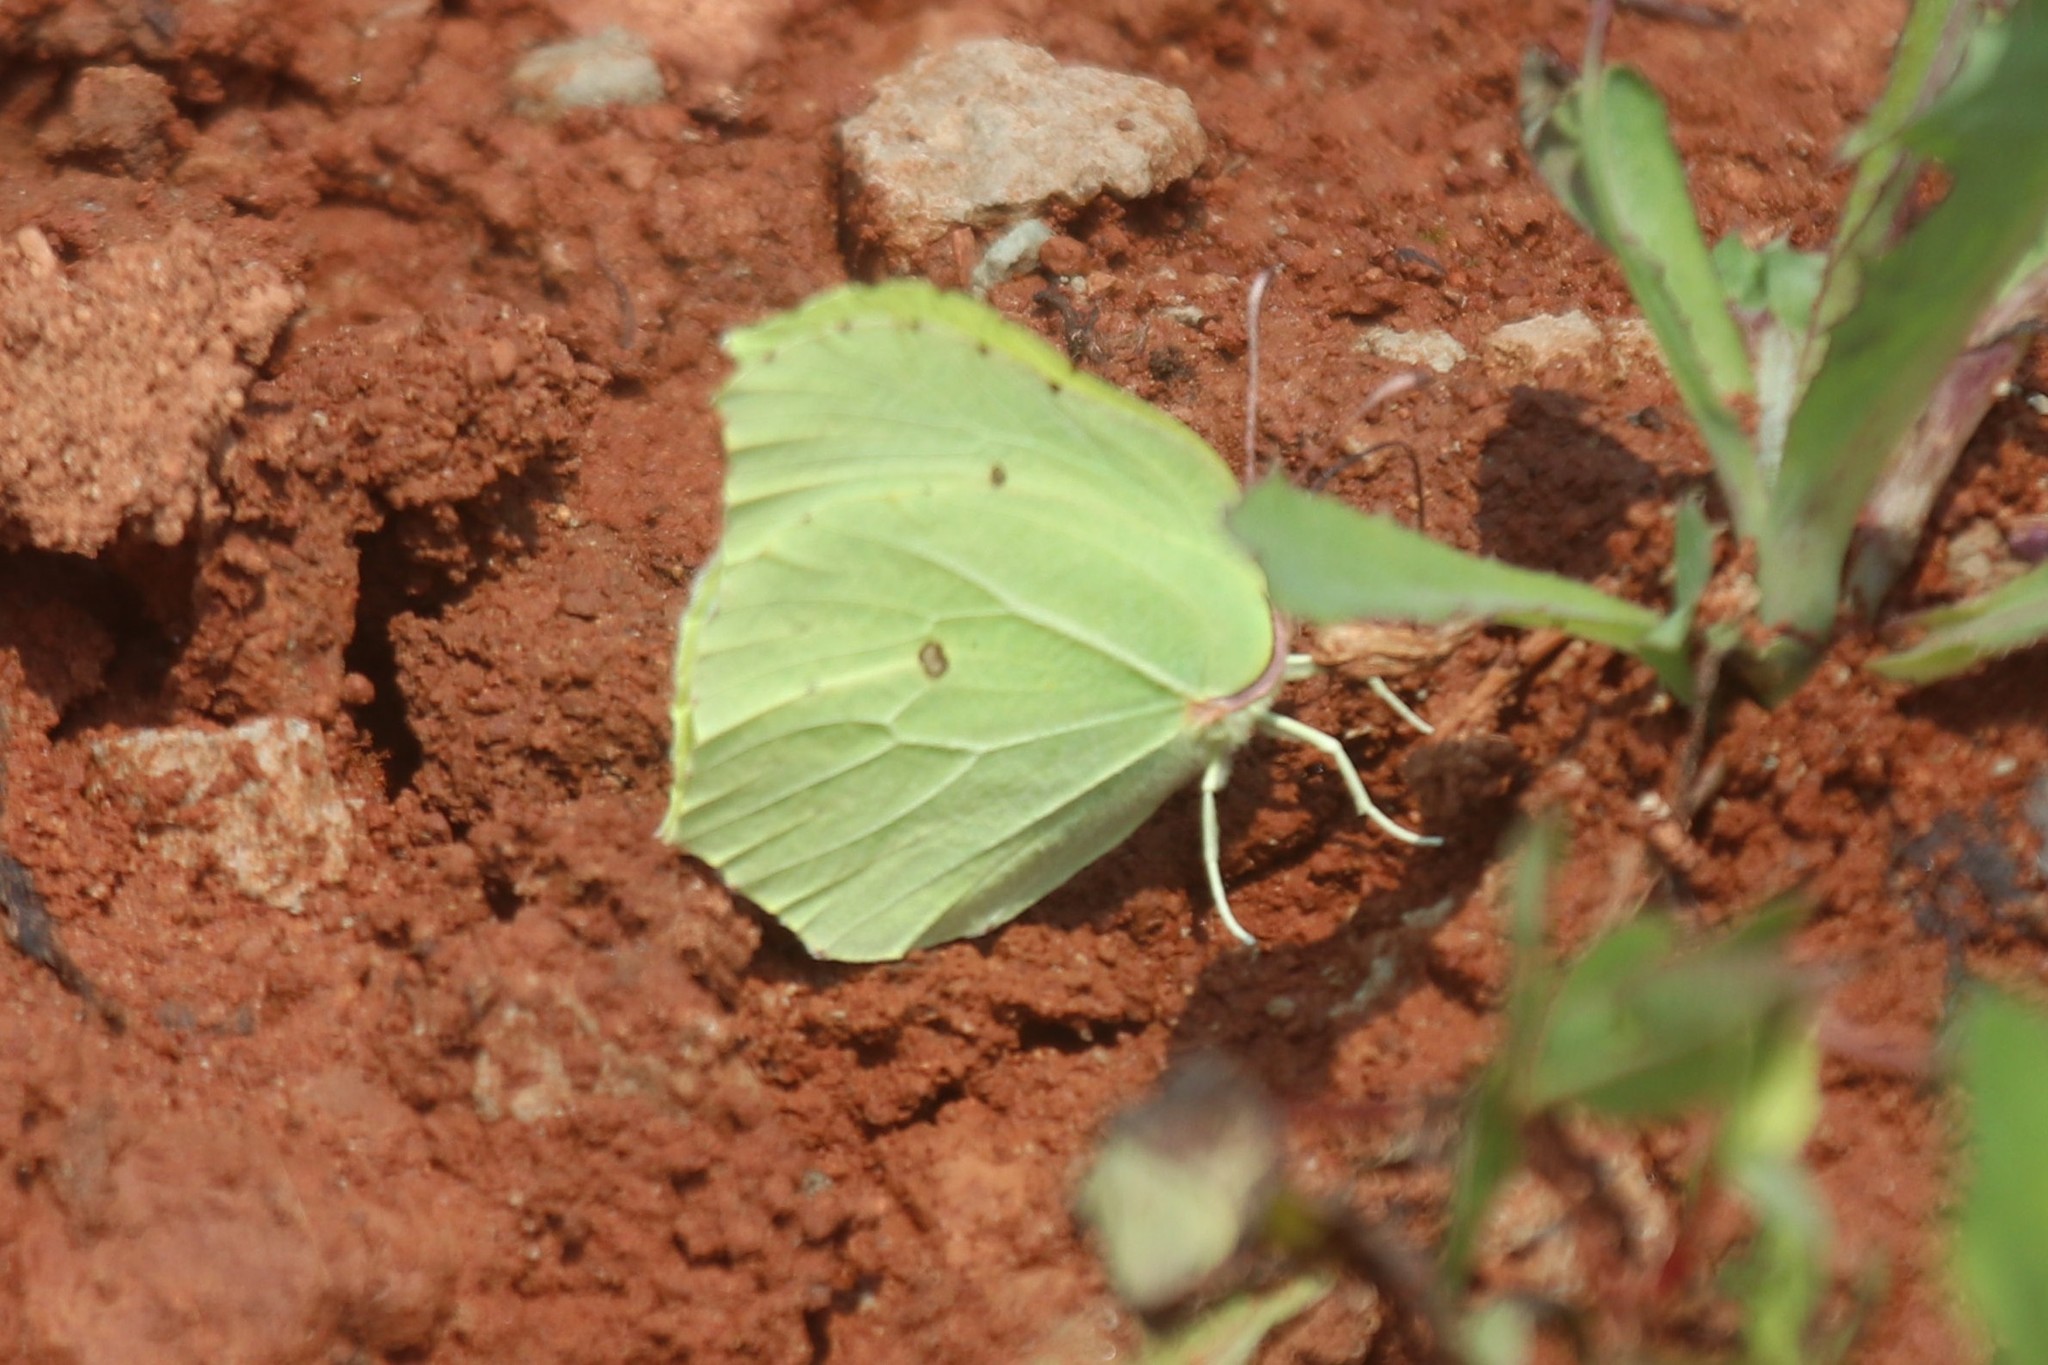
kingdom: Animalia
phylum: Arthropoda
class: Insecta
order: Lepidoptera
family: Pieridae
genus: Gonepteryx
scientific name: Gonepteryx rhamni
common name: Brimstone
